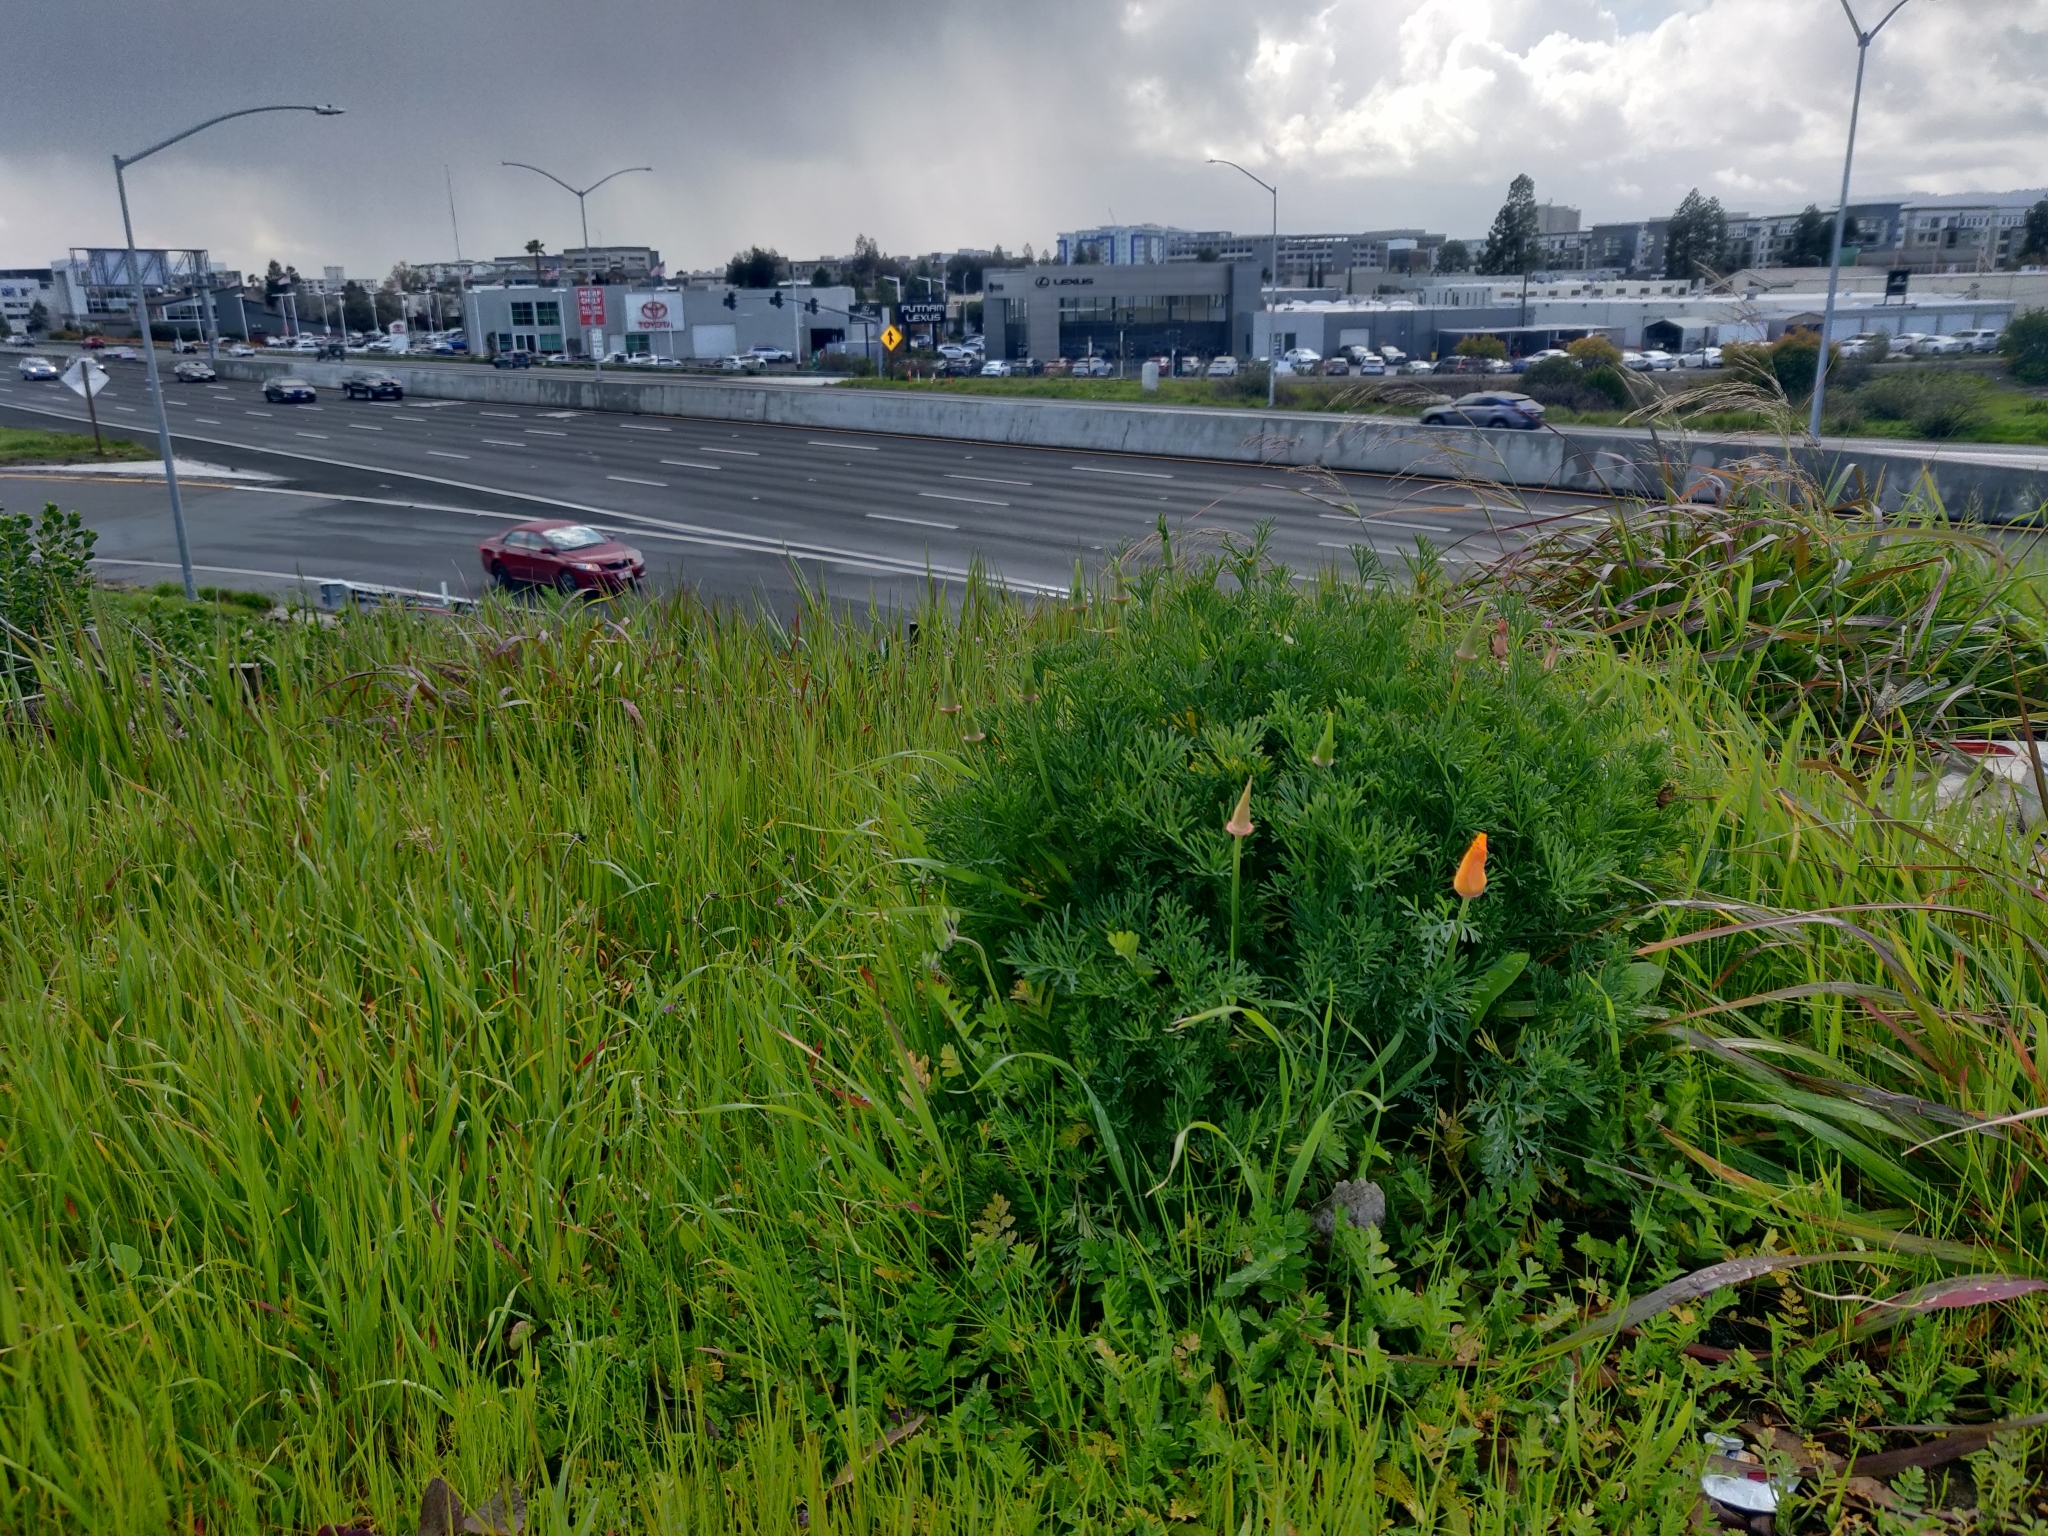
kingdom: Plantae
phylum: Tracheophyta
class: Magnoliopsida
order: Ranunculales
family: Papaveraceae
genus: Eschscholzia
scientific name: Eschscholzia californica
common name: California poppy
